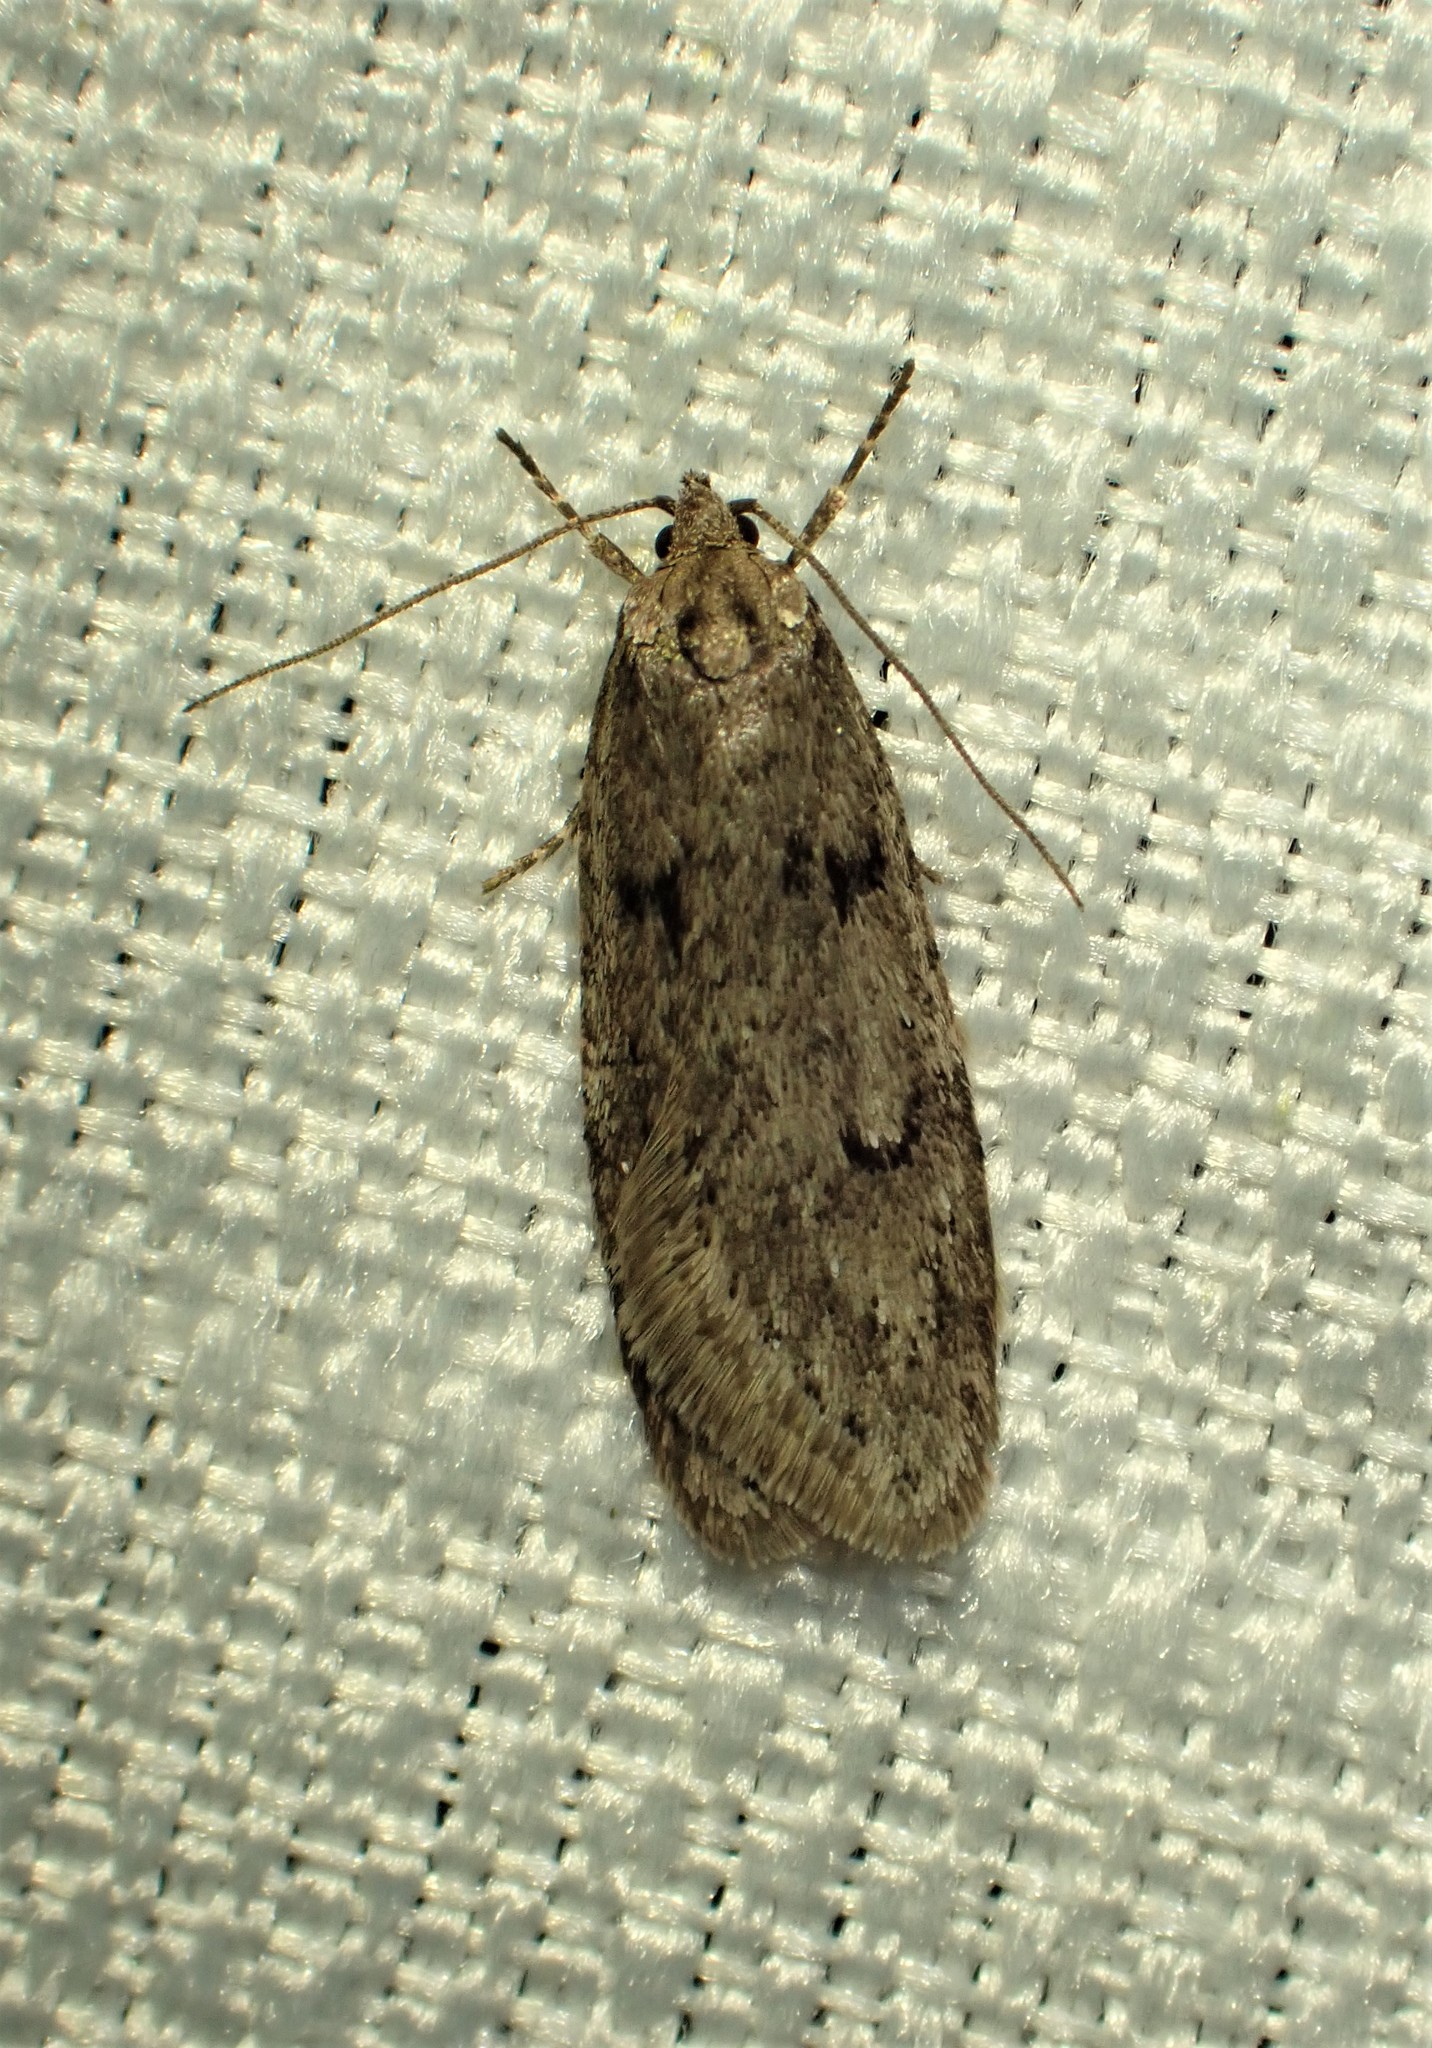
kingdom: Animalia
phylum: Arthropoda
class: Insecta
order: Lepidoptera
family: Depressariidae
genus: Semioscopis
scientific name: Semioscopis megamicrella
